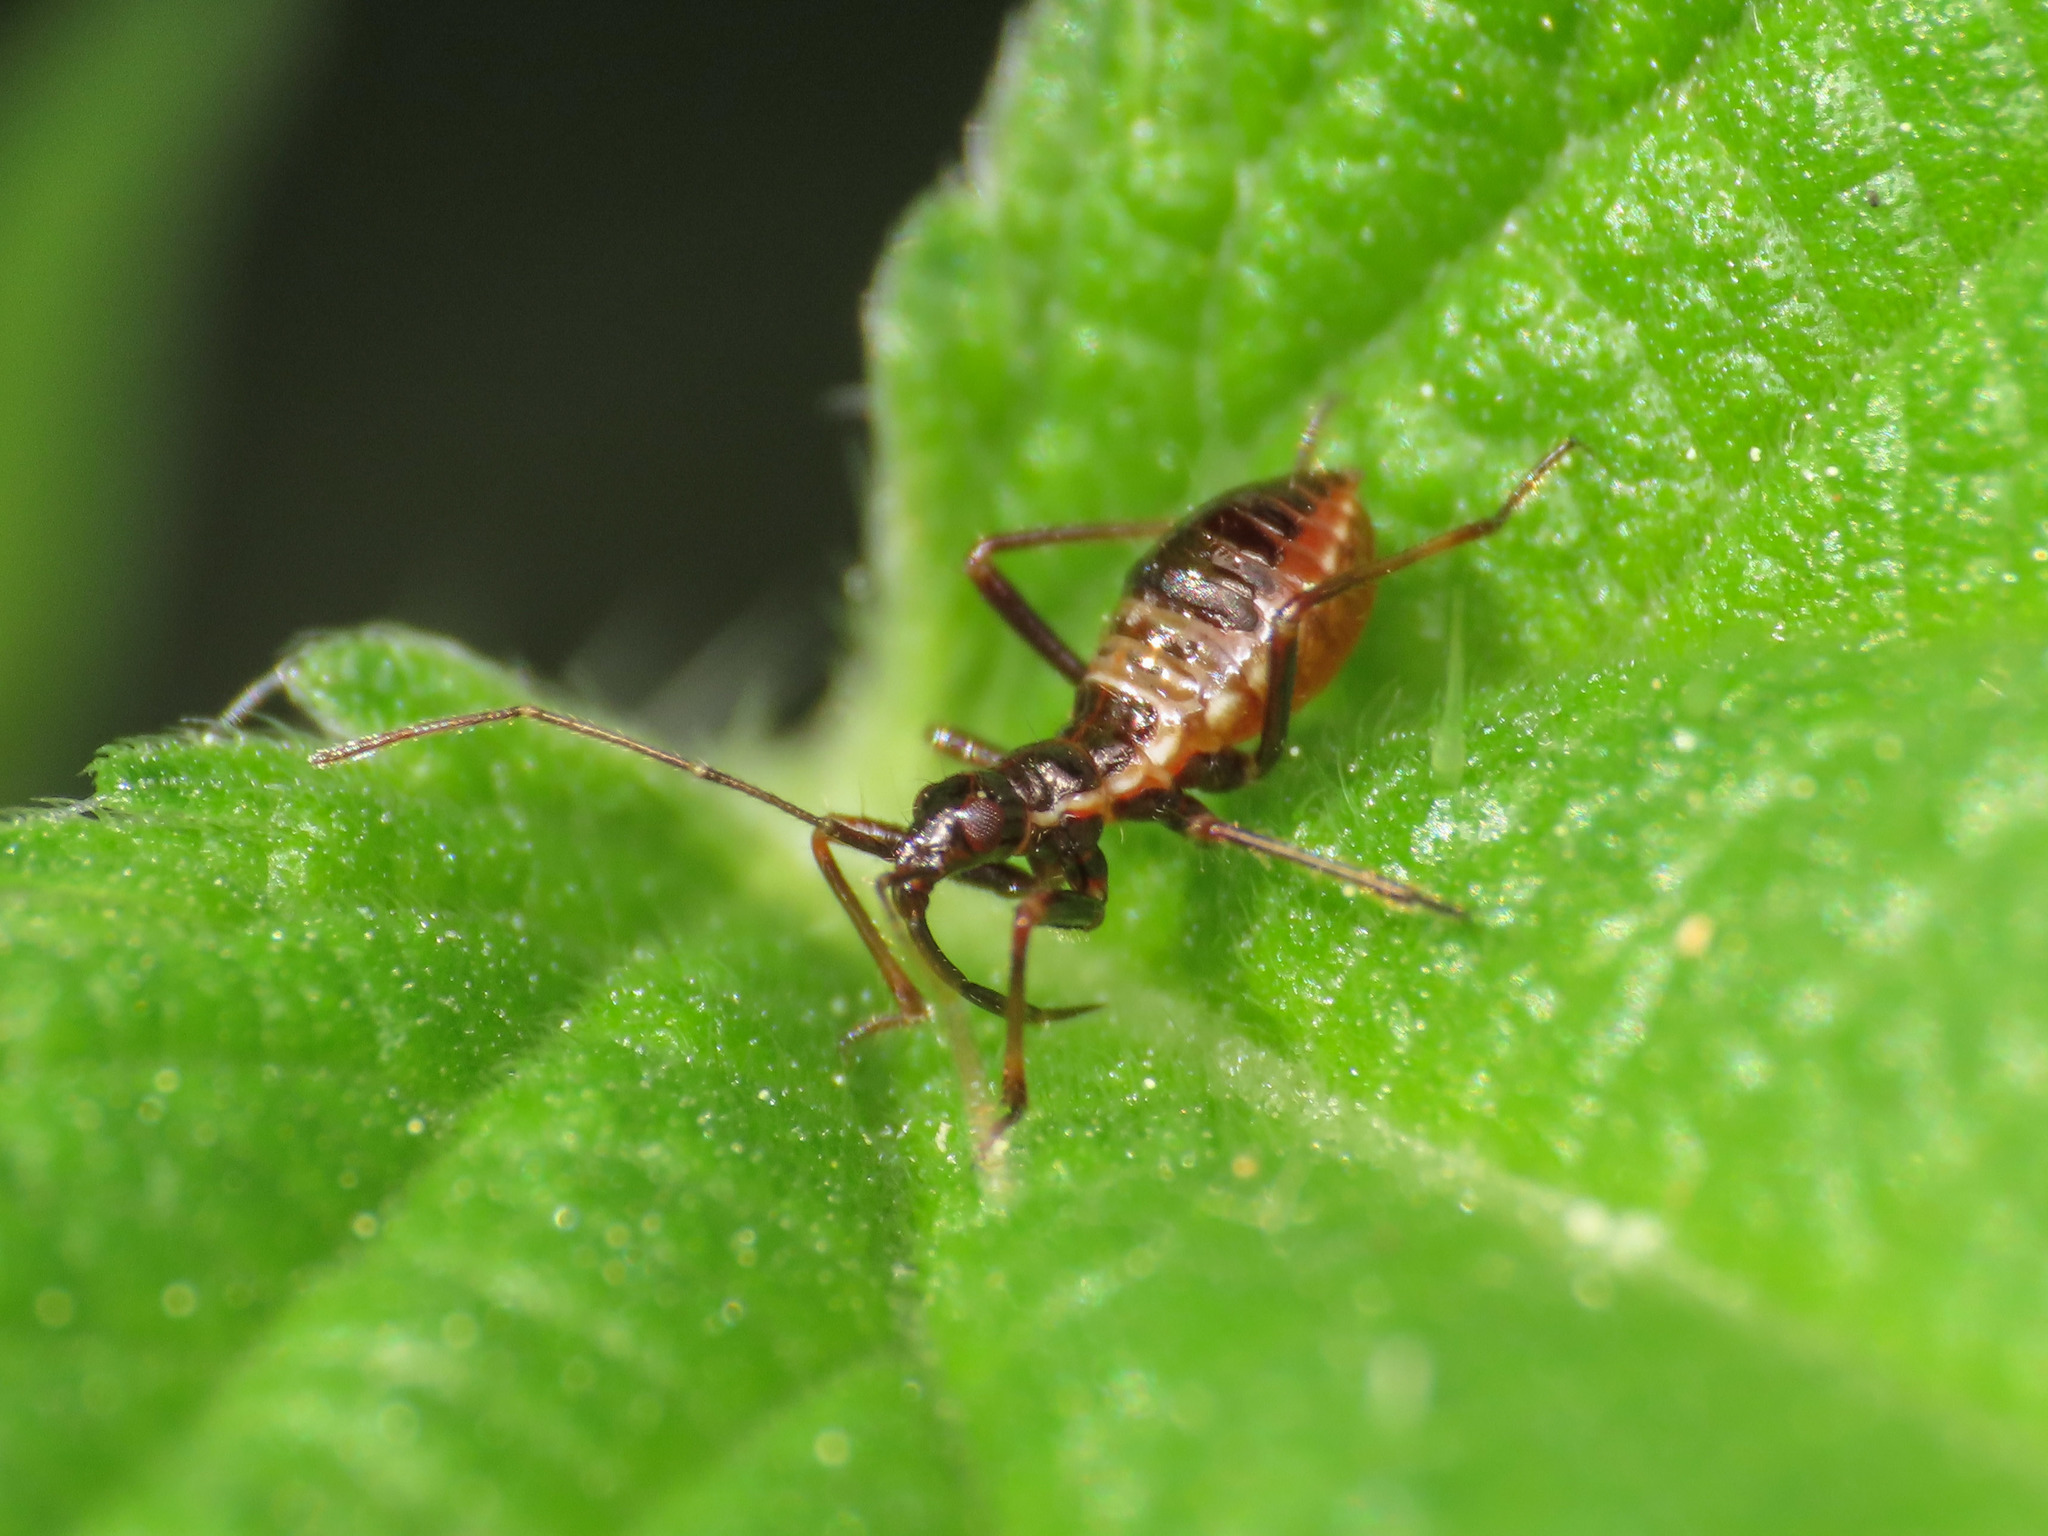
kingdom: Animalia
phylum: Arthropoda
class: Insecta
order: Hemiptera
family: Nabidae
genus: Himacerus
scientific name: Himacerus apterus
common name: Tree damsel bug
